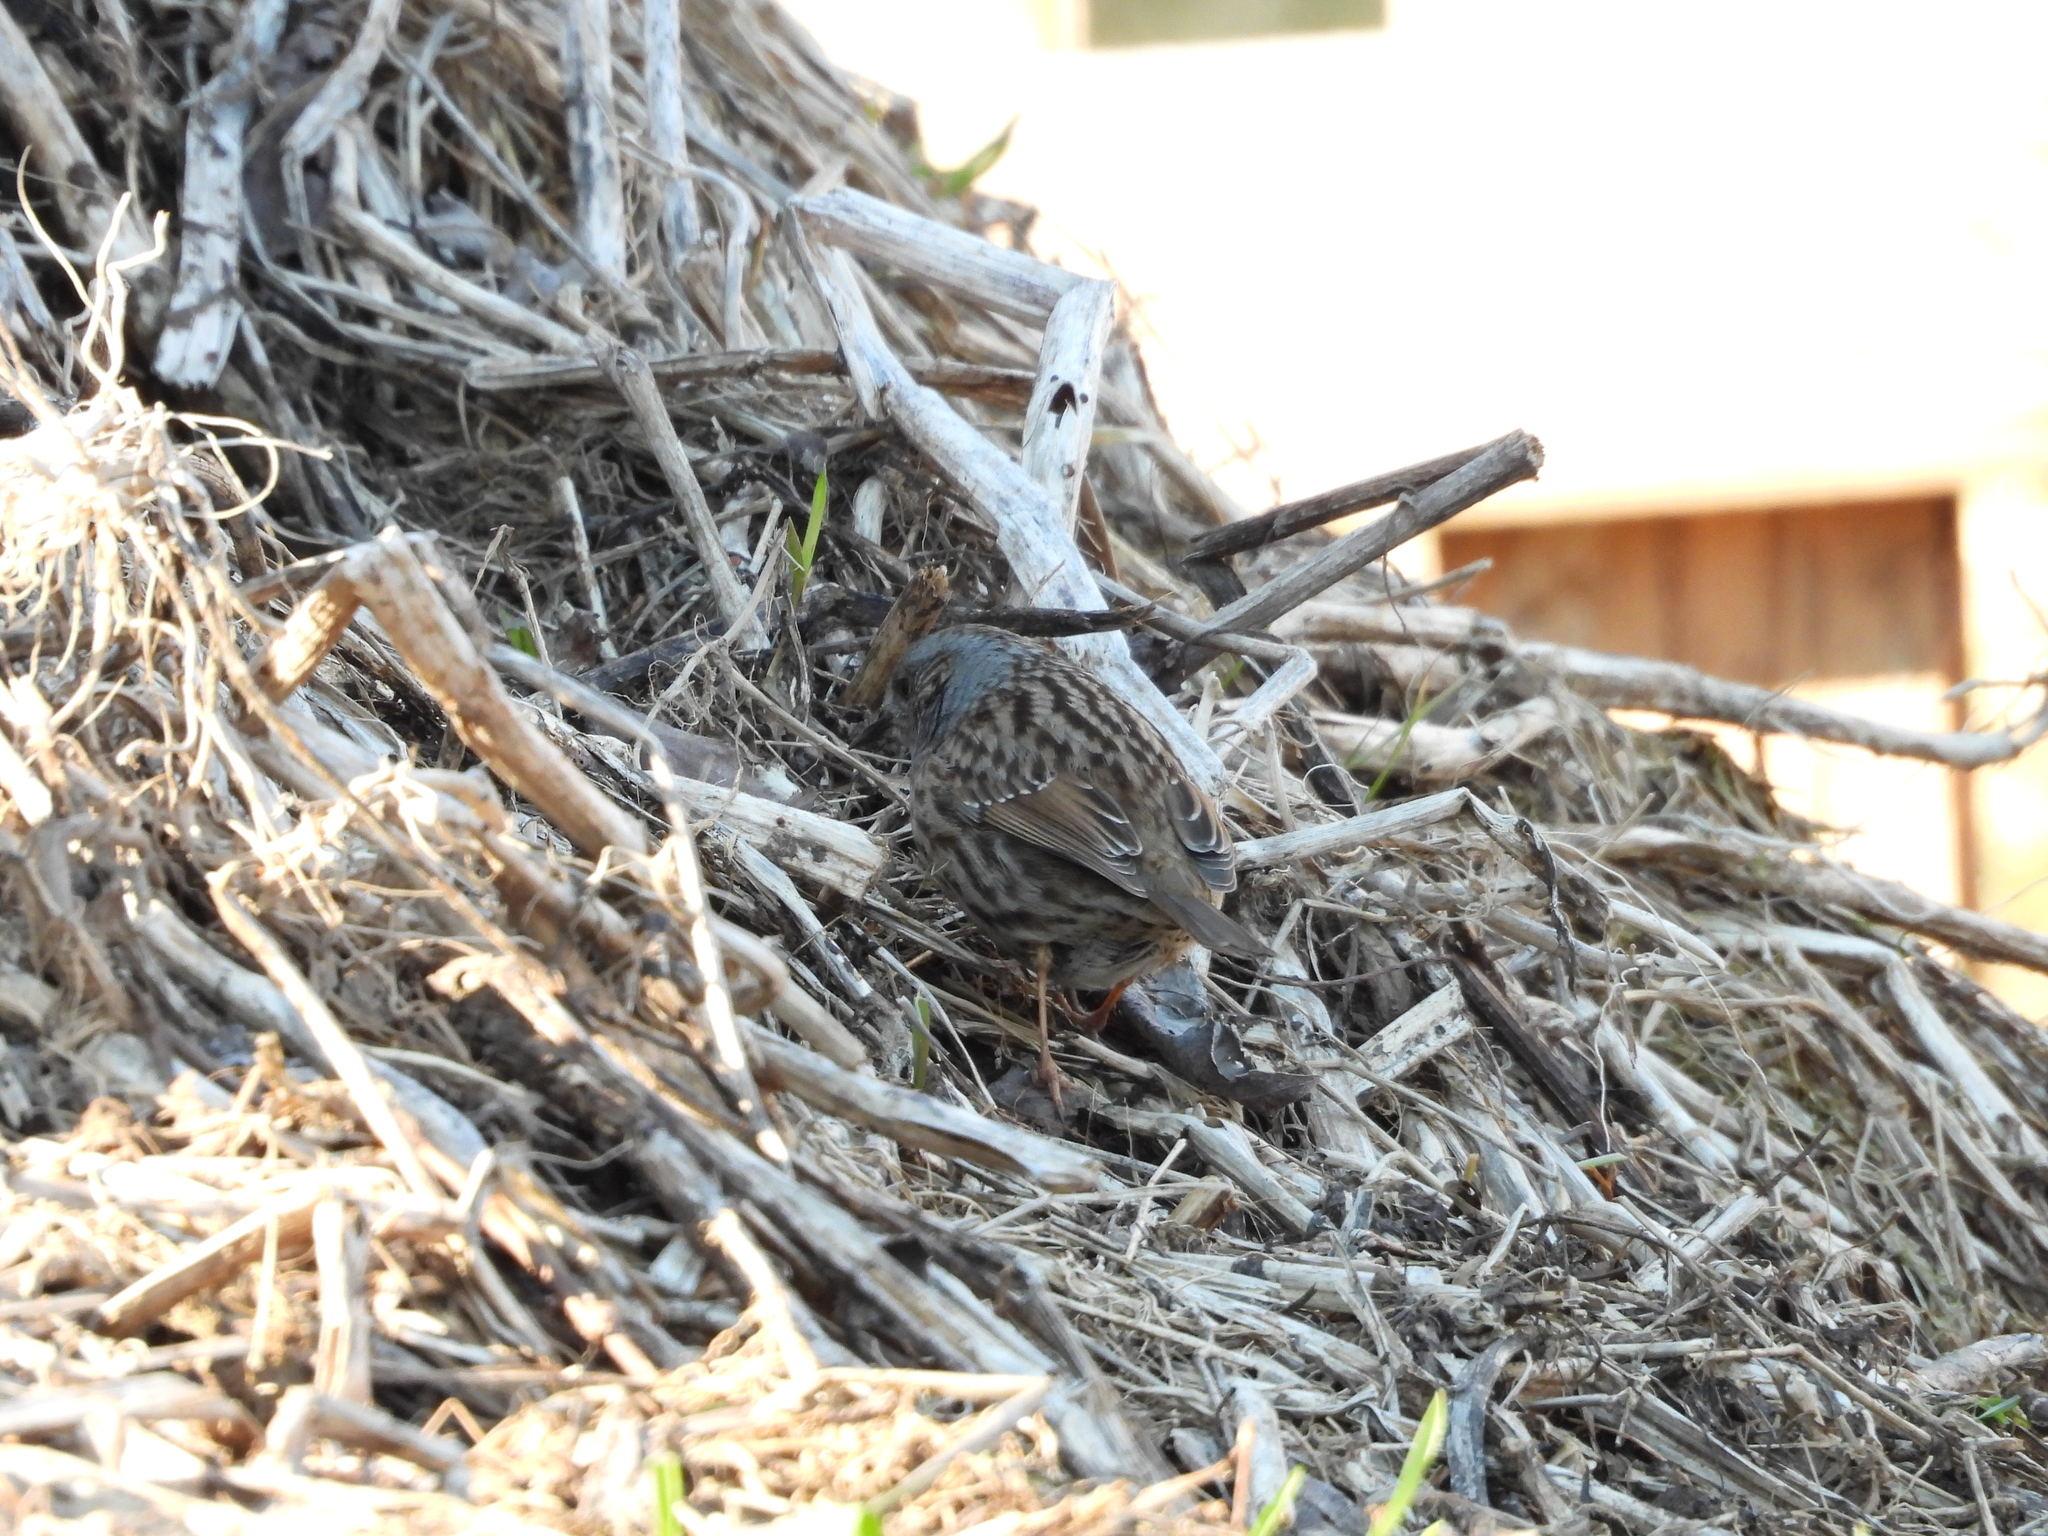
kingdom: Animalia
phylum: Chordata
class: Aves
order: Passeriformes
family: Prunellidae
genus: Prunella
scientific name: Prunella modularis
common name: Dunnock
